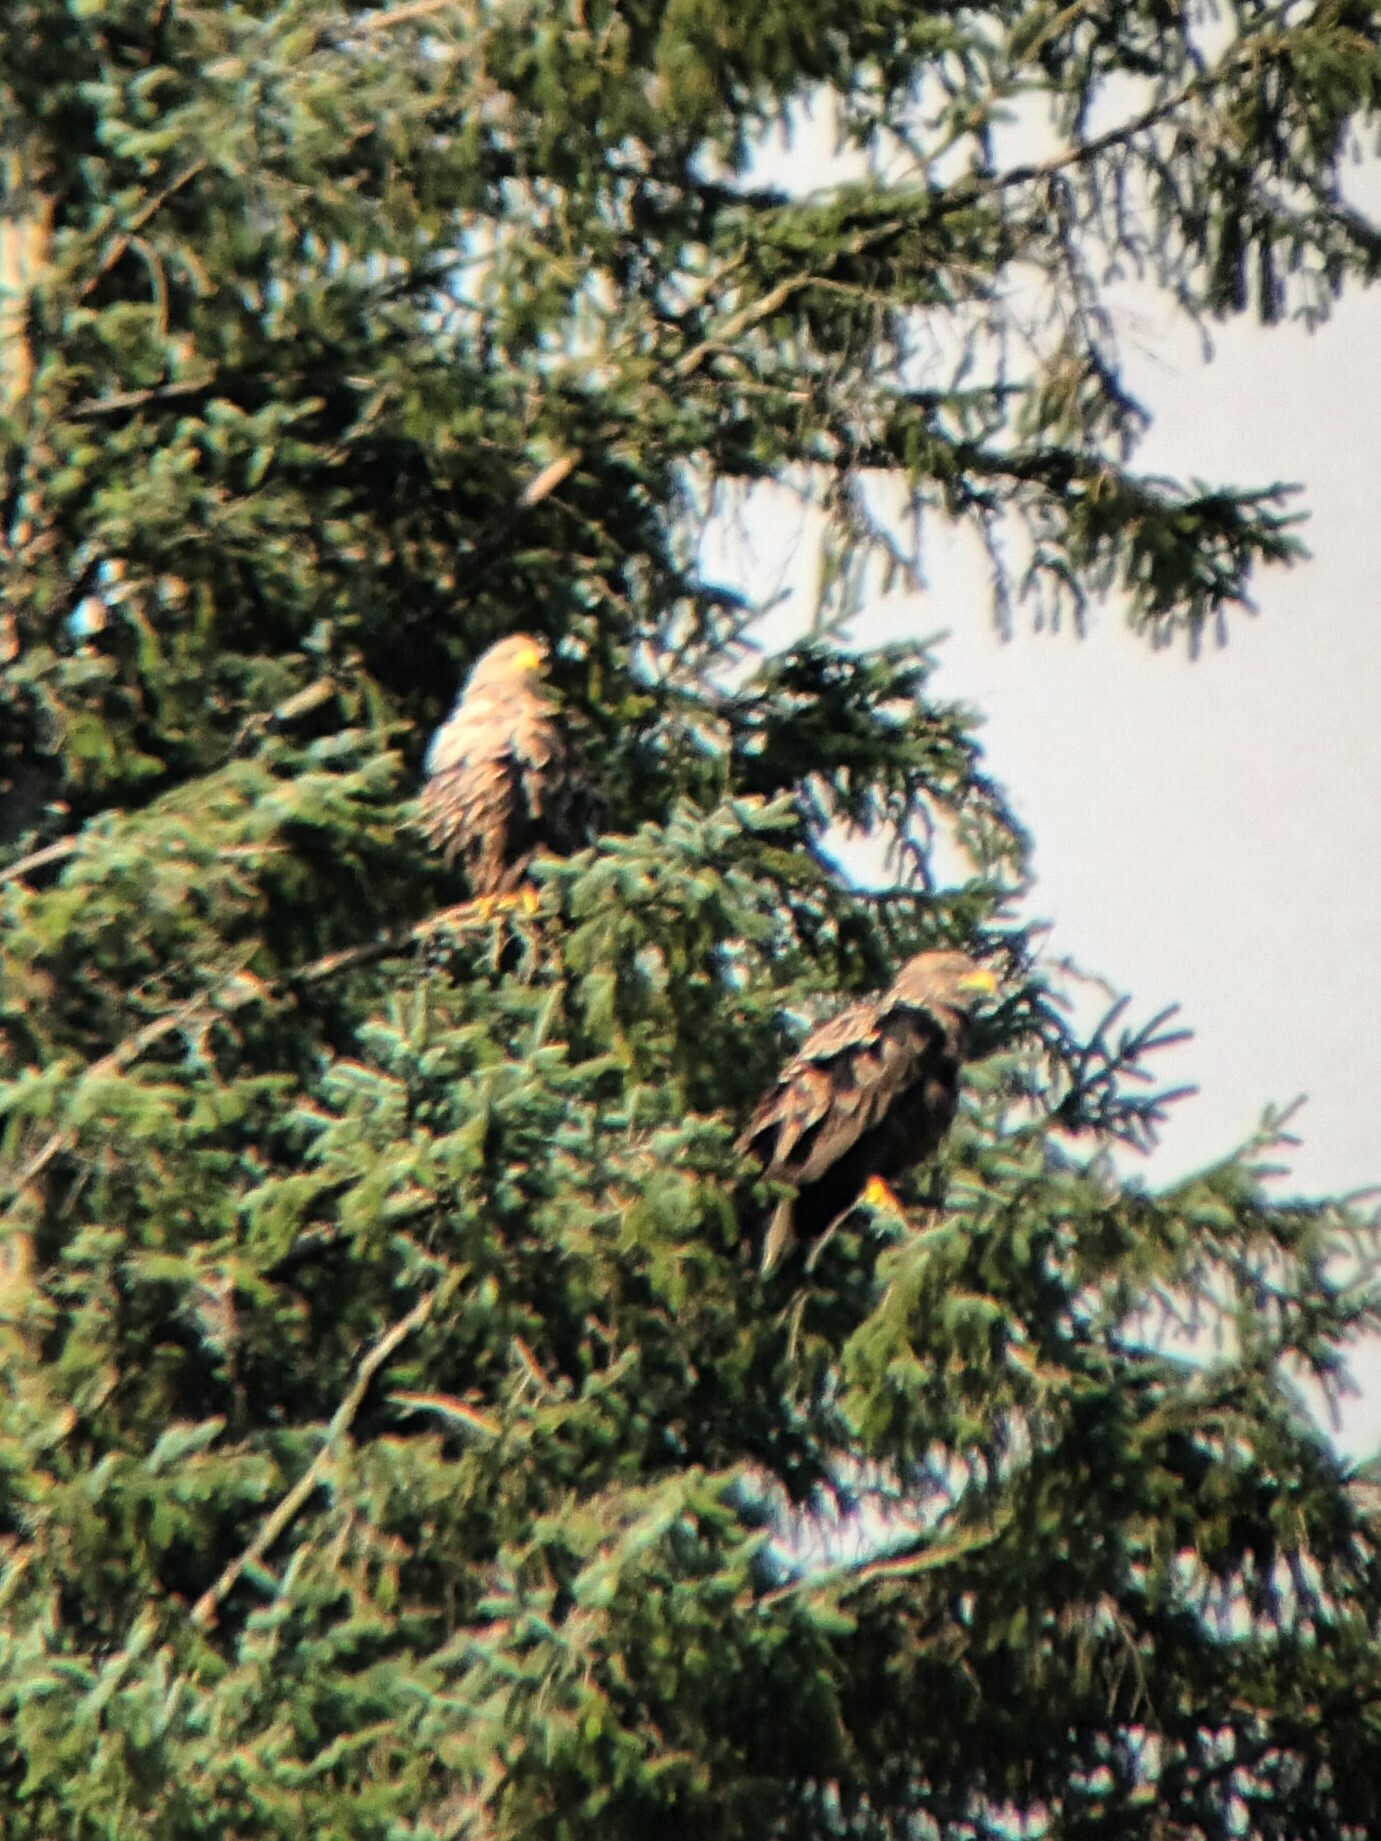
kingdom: Animalia
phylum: Chordata
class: Aves
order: Accipitriformes
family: Accipitridae
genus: Haliaeetus
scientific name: Haliaeetus albicilla
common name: White-tailed eagle
